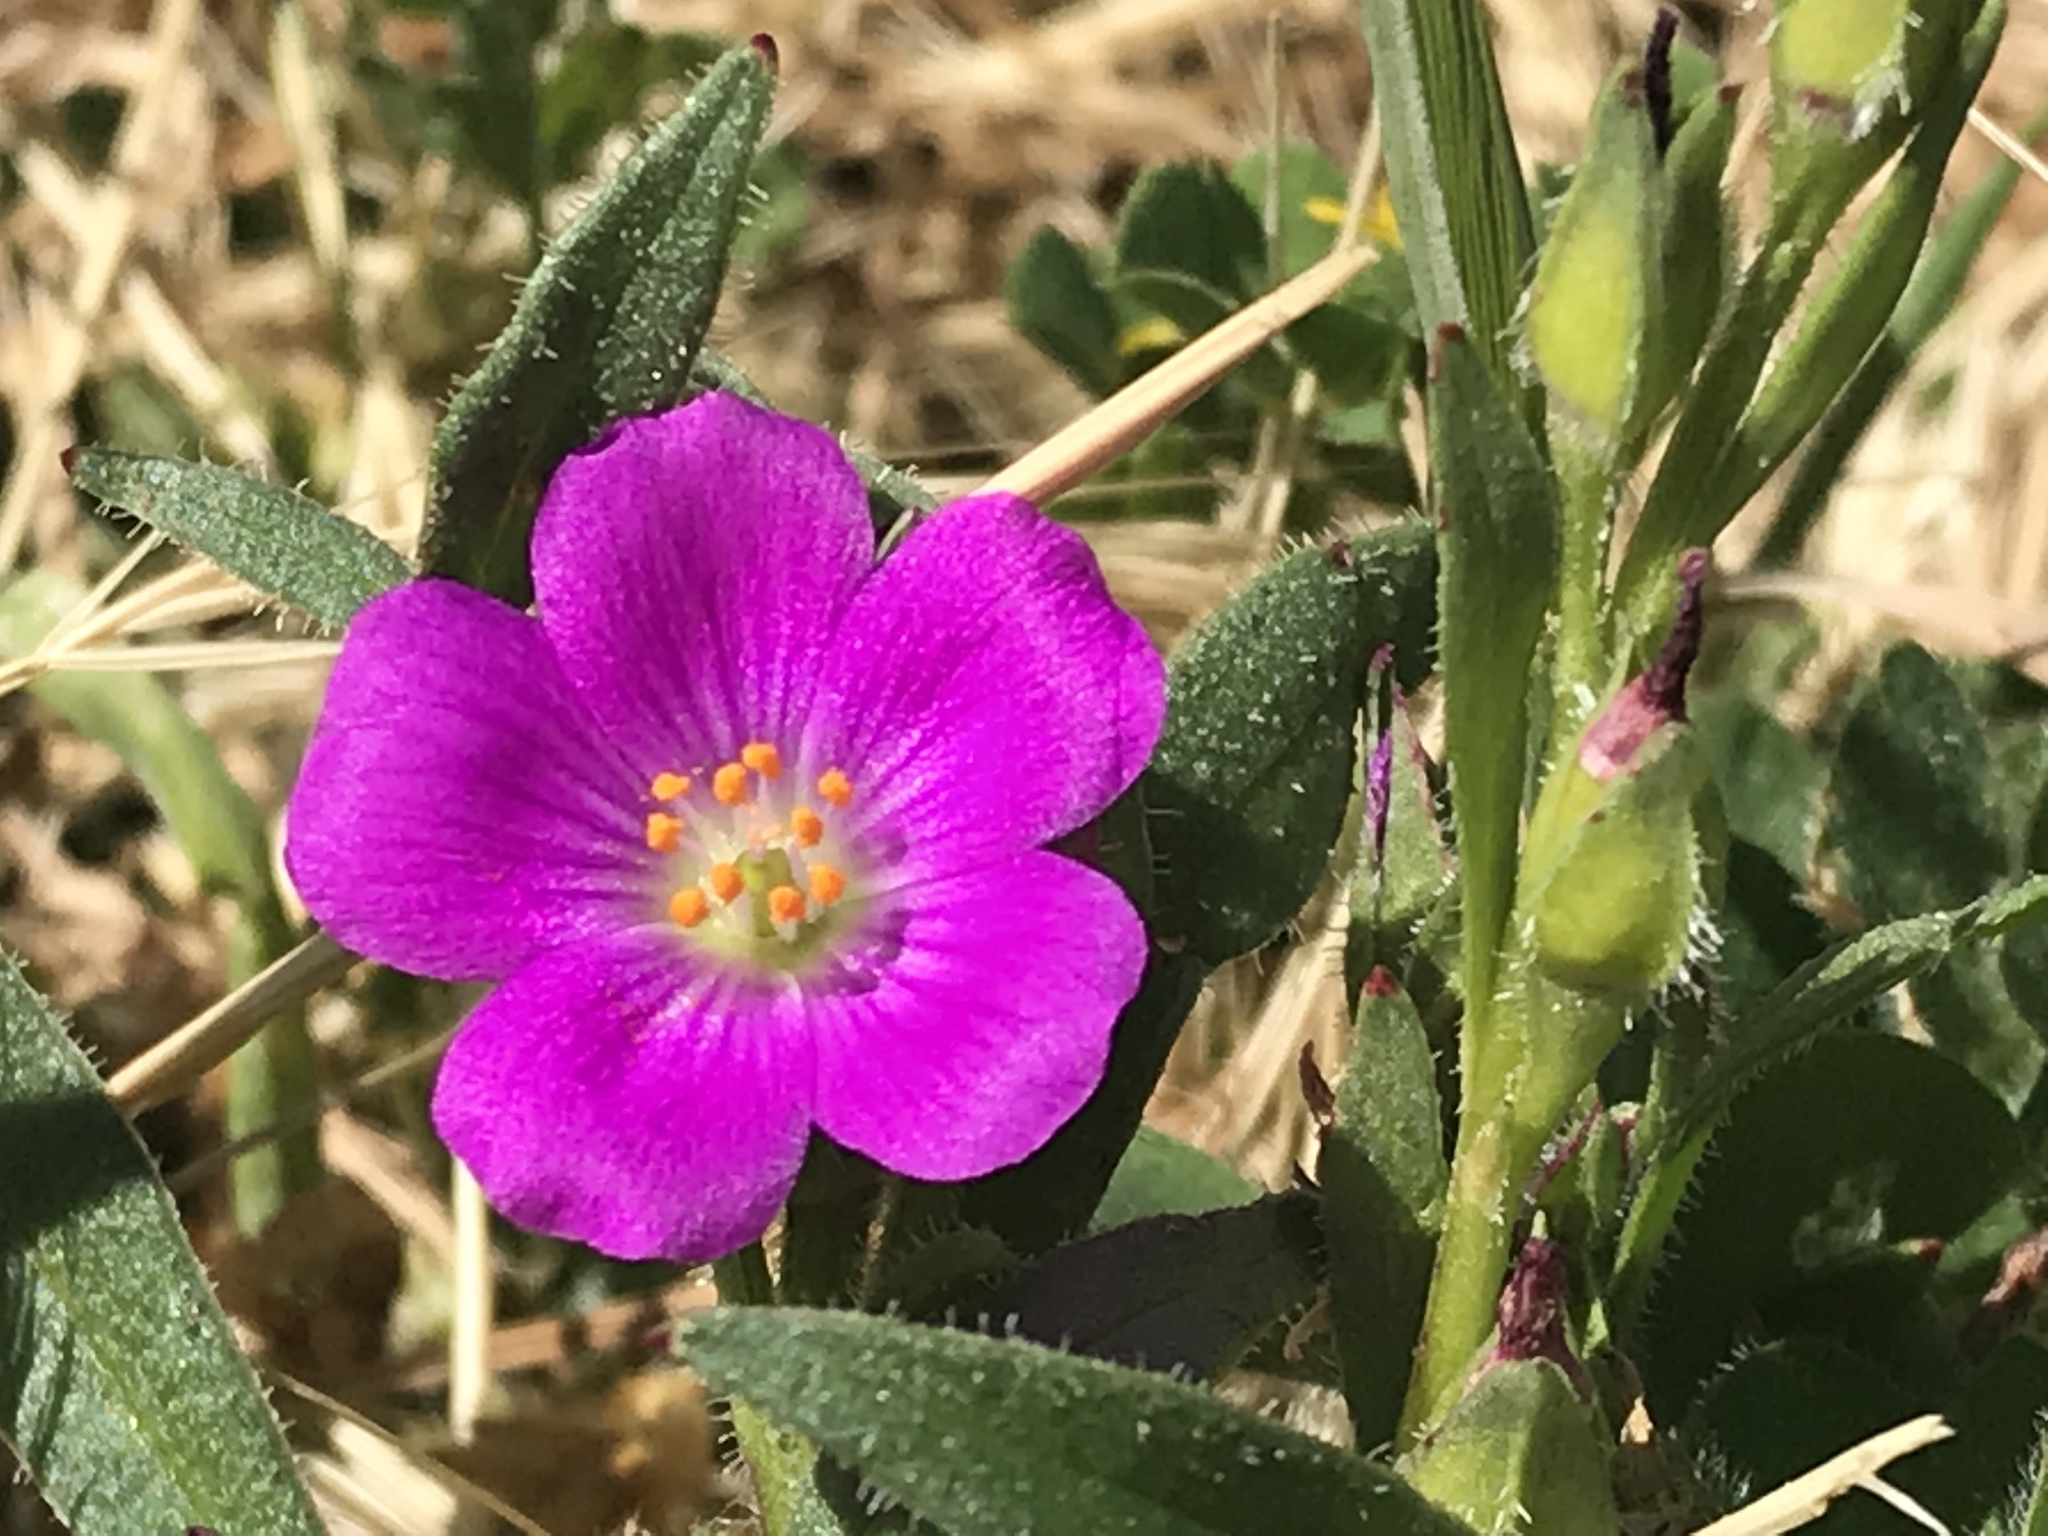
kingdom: Plantae
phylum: Tracheophyta
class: Magnoliopsida
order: Caryophyllales
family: Montiaceae
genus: Calandrinia
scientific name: Calandrinia menziesii
